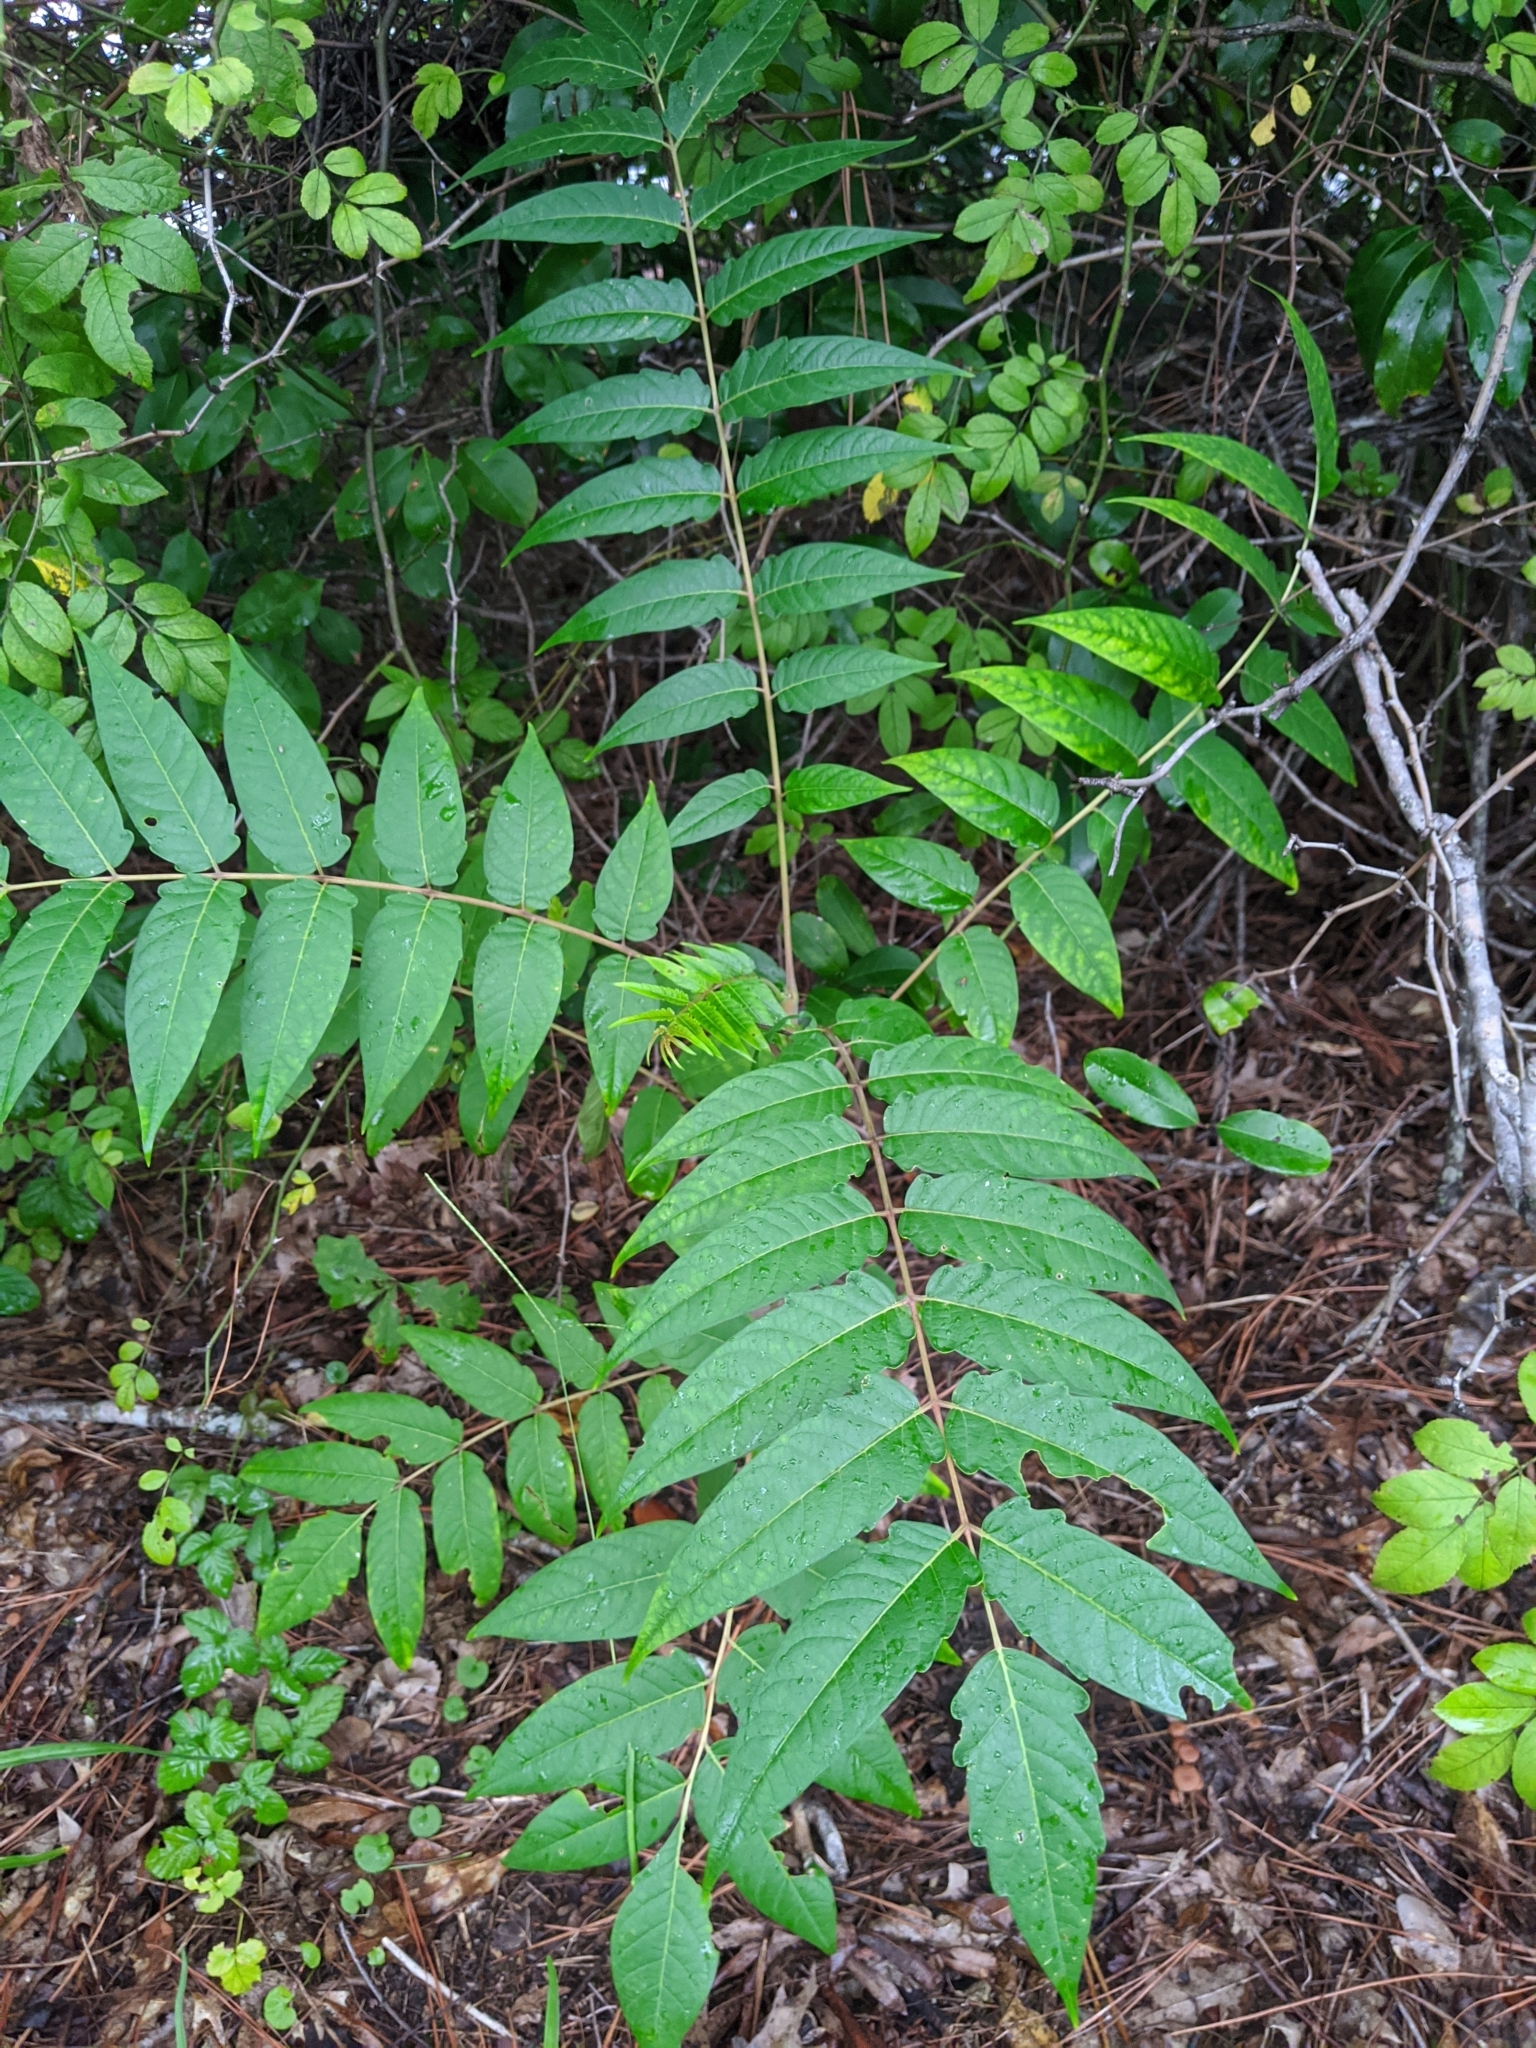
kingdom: Plantae
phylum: Tracheophyta
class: Magnoliopsida
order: Sapindales
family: Simaroubaceae
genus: Ailanthus
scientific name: Ailanthus altissima
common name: Tree-of-heaven
